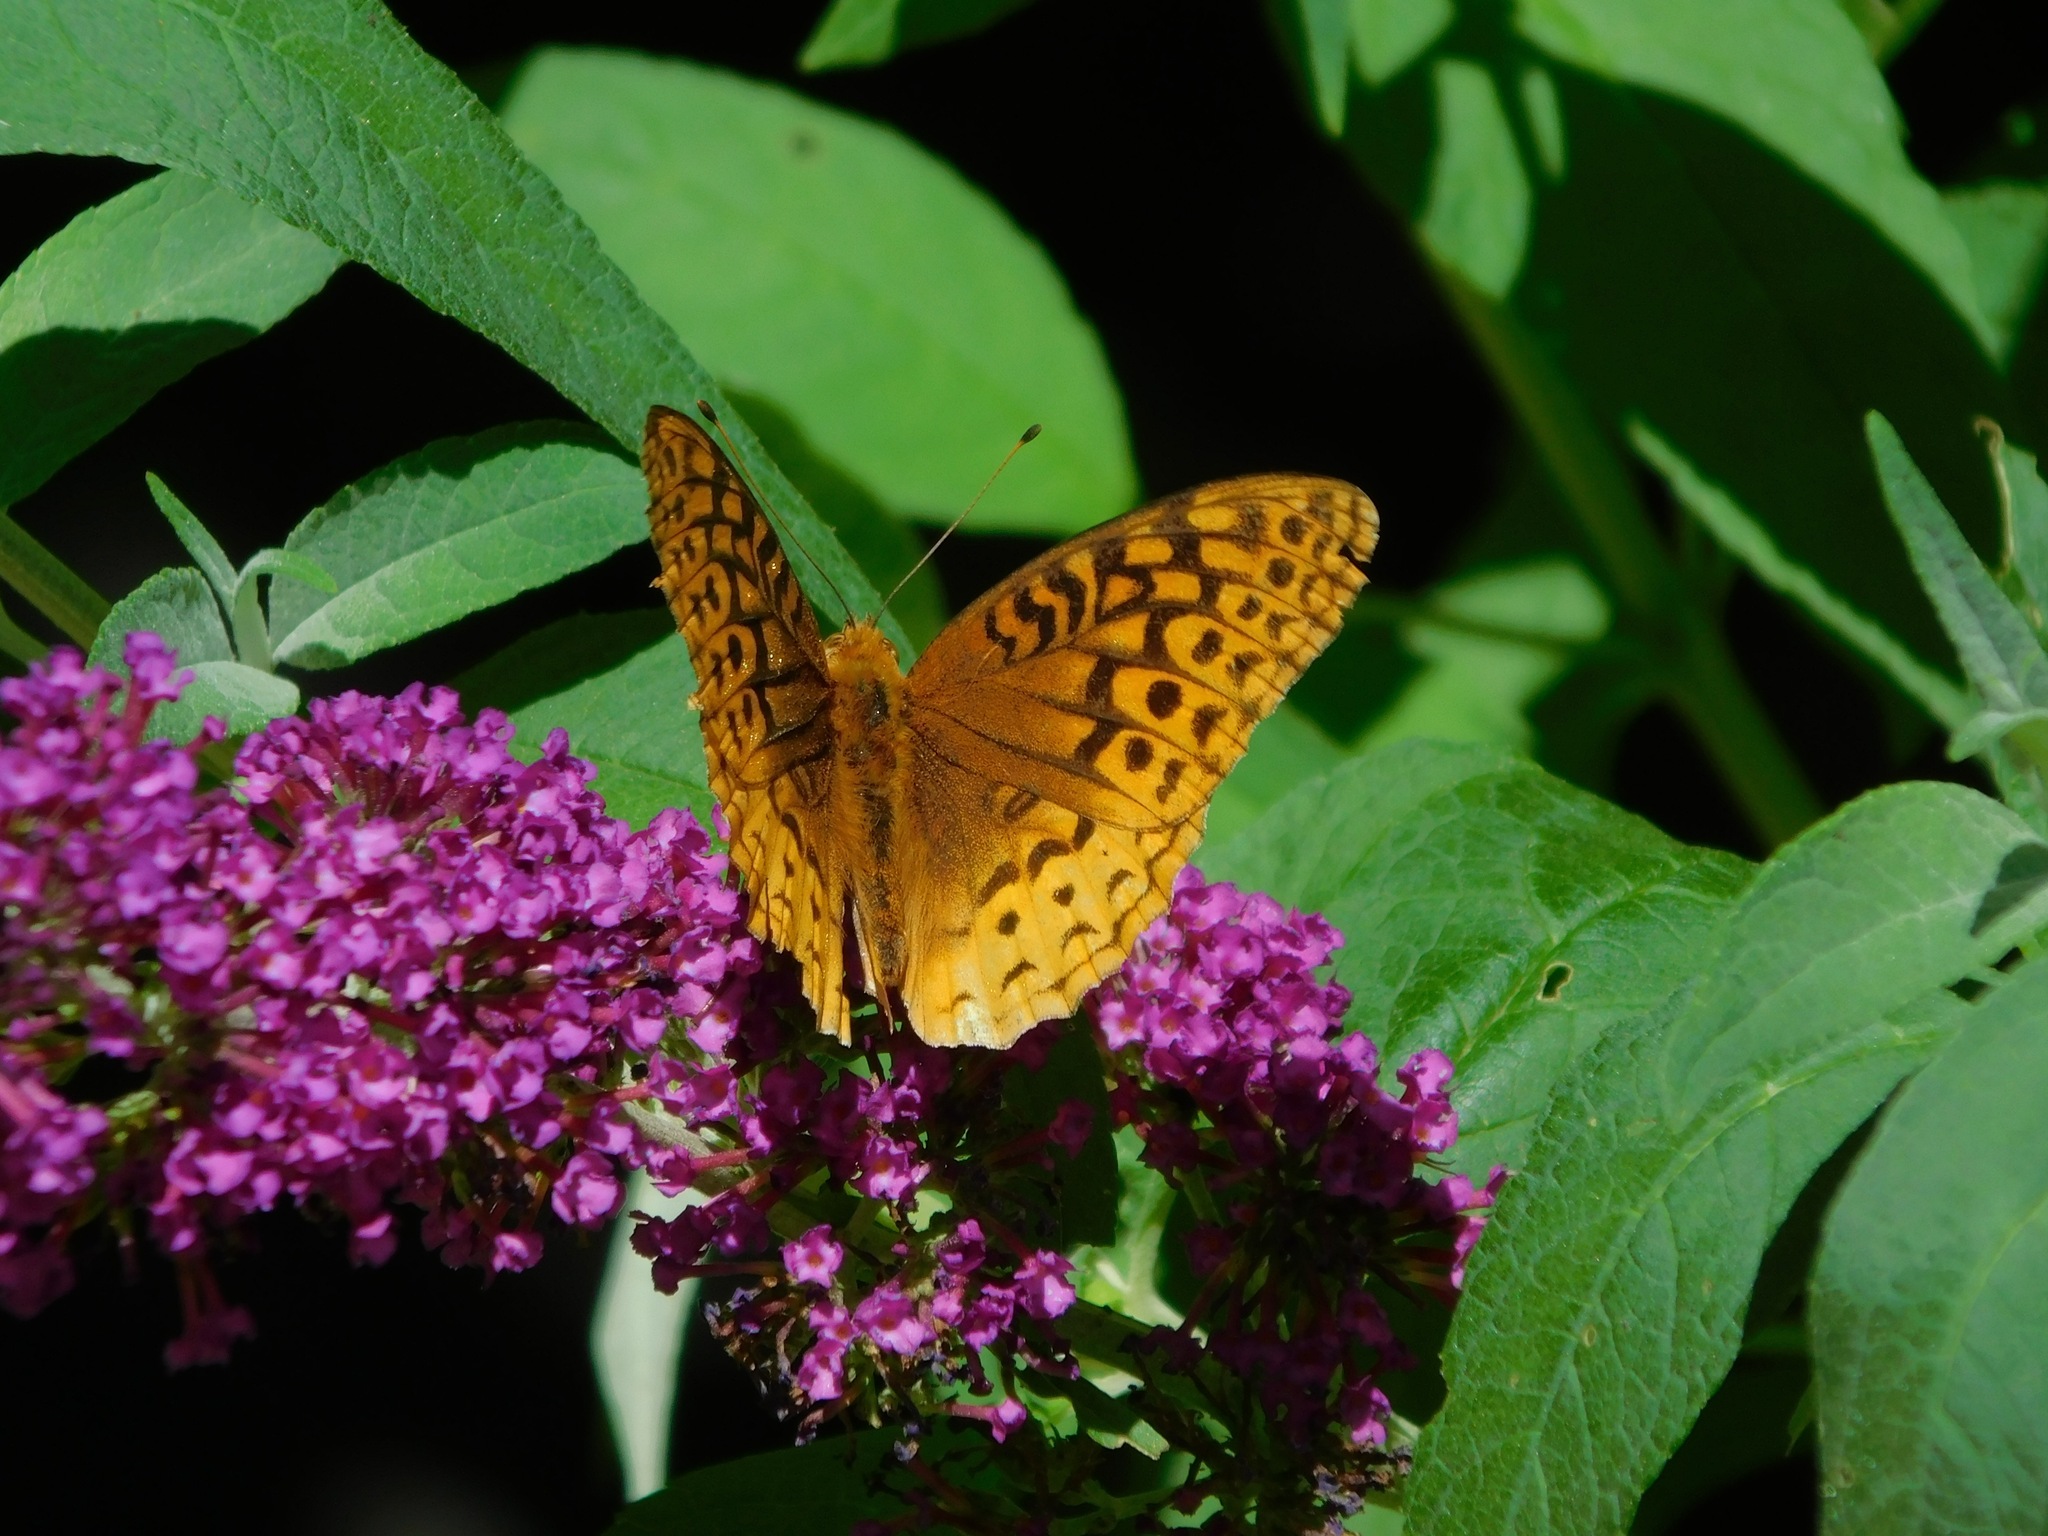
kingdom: Animalia
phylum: Arthropoda
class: Insecta
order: Lepidoptera
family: Nymphalidae
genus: Speyeria
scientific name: Speyeria aphrodite
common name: Aphrodite friitllary
